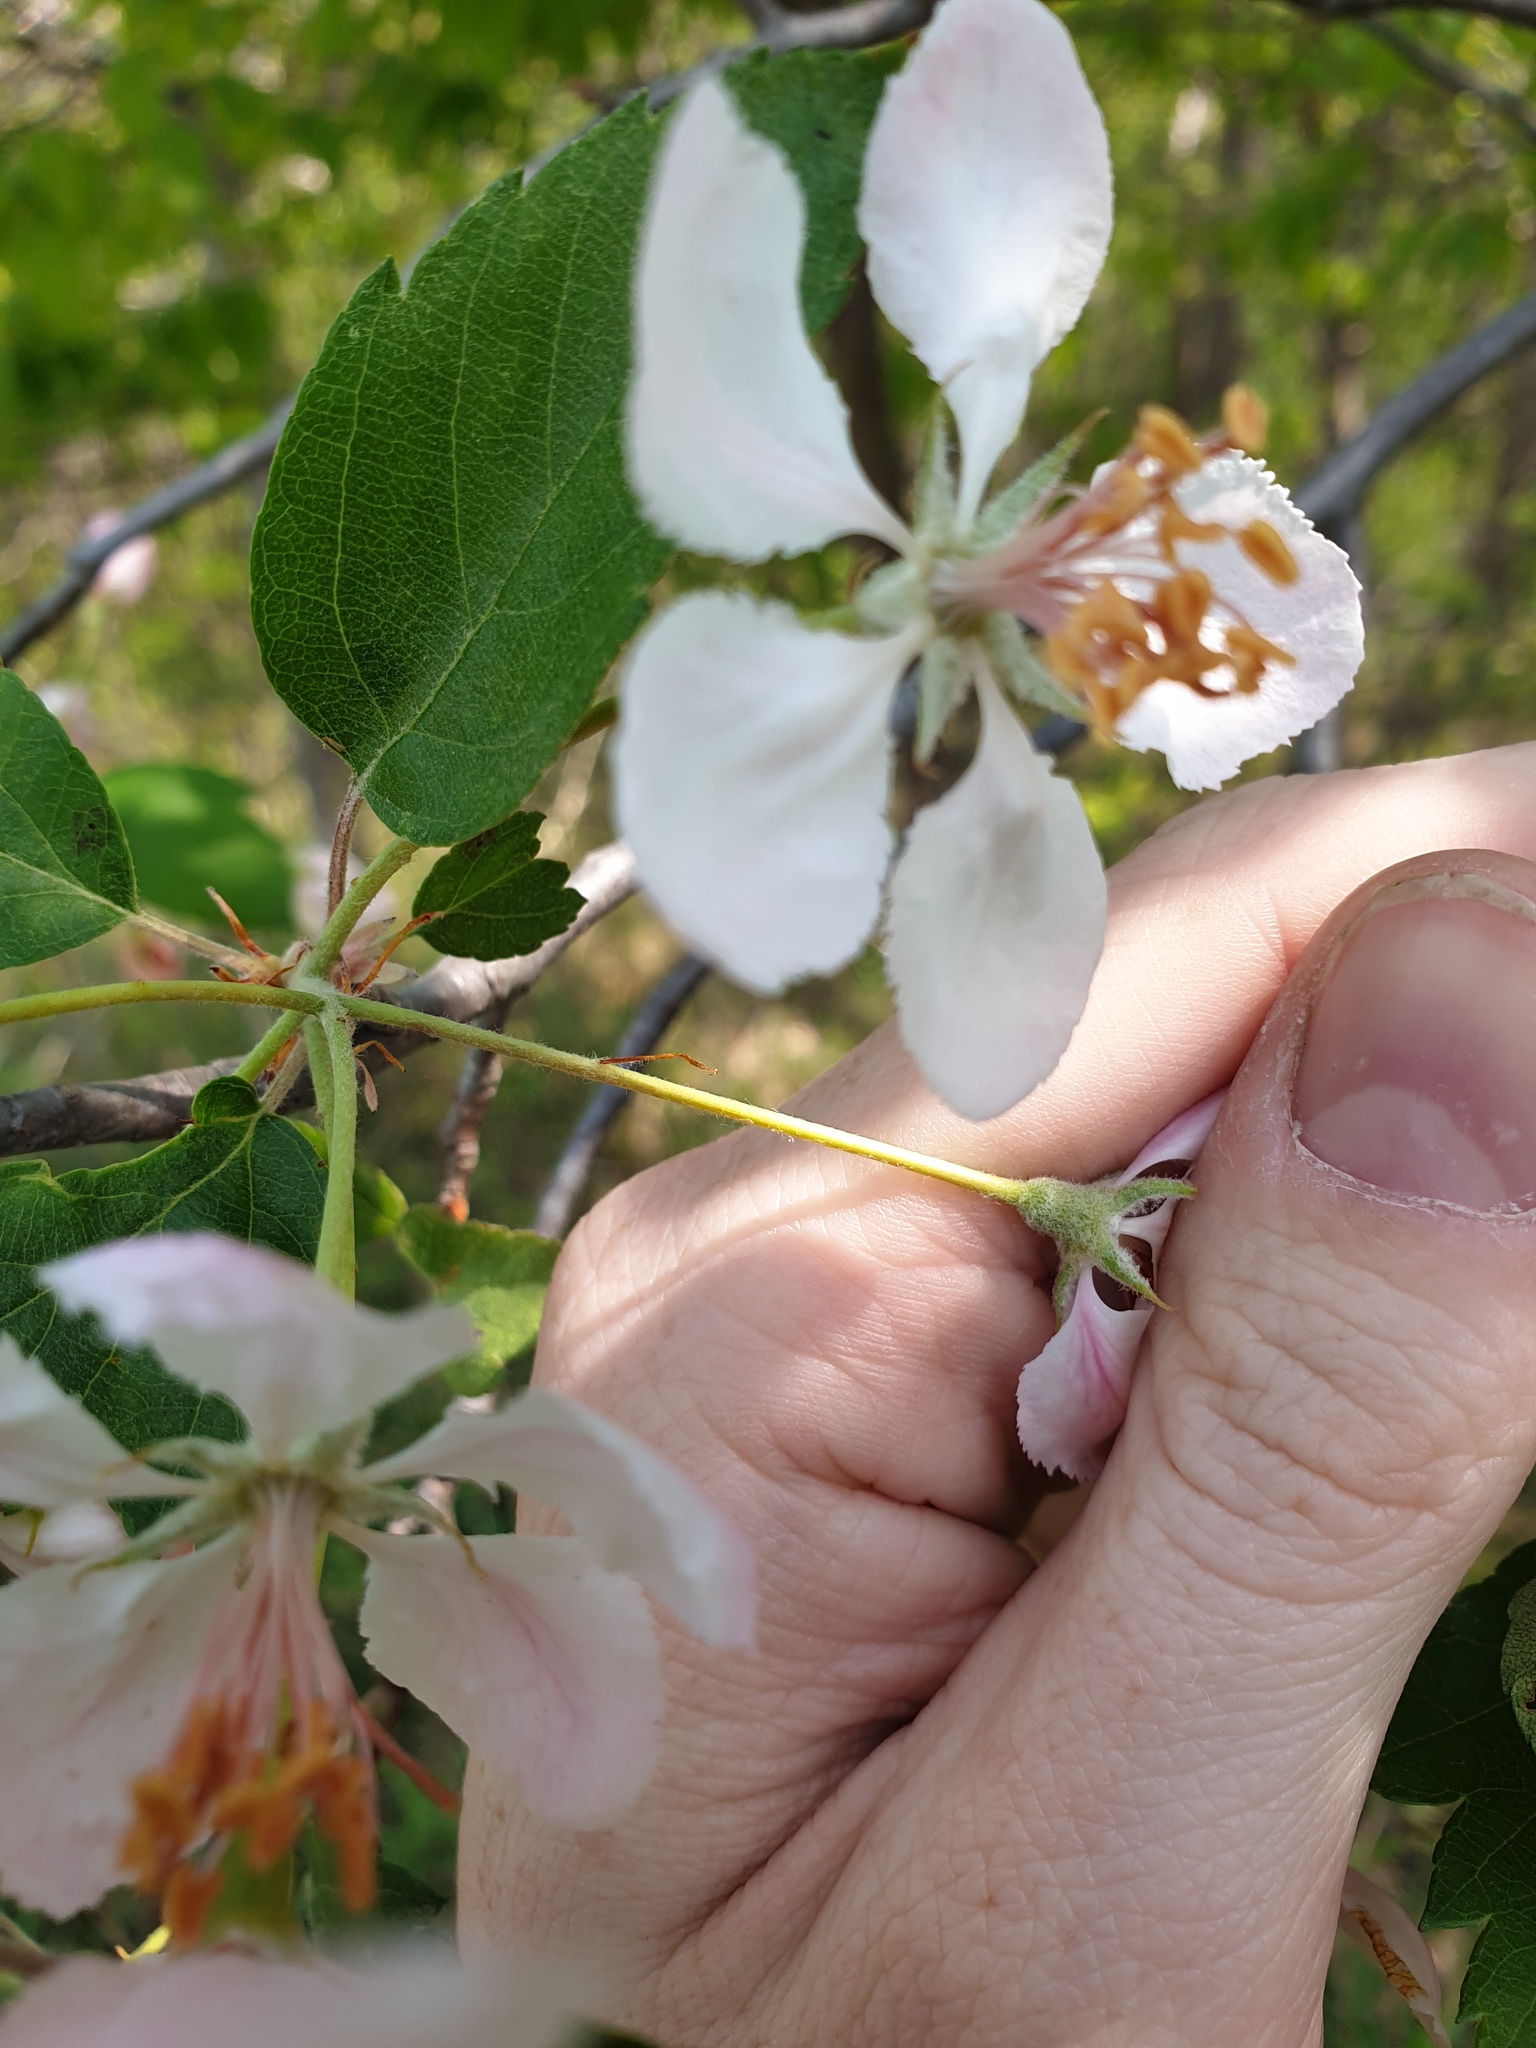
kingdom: Plantae
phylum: Tracheophyta
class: Magnoliopsida
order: Rosales
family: Rosaceae
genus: Malus
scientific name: Malus coronaria
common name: Sweet crab apple
